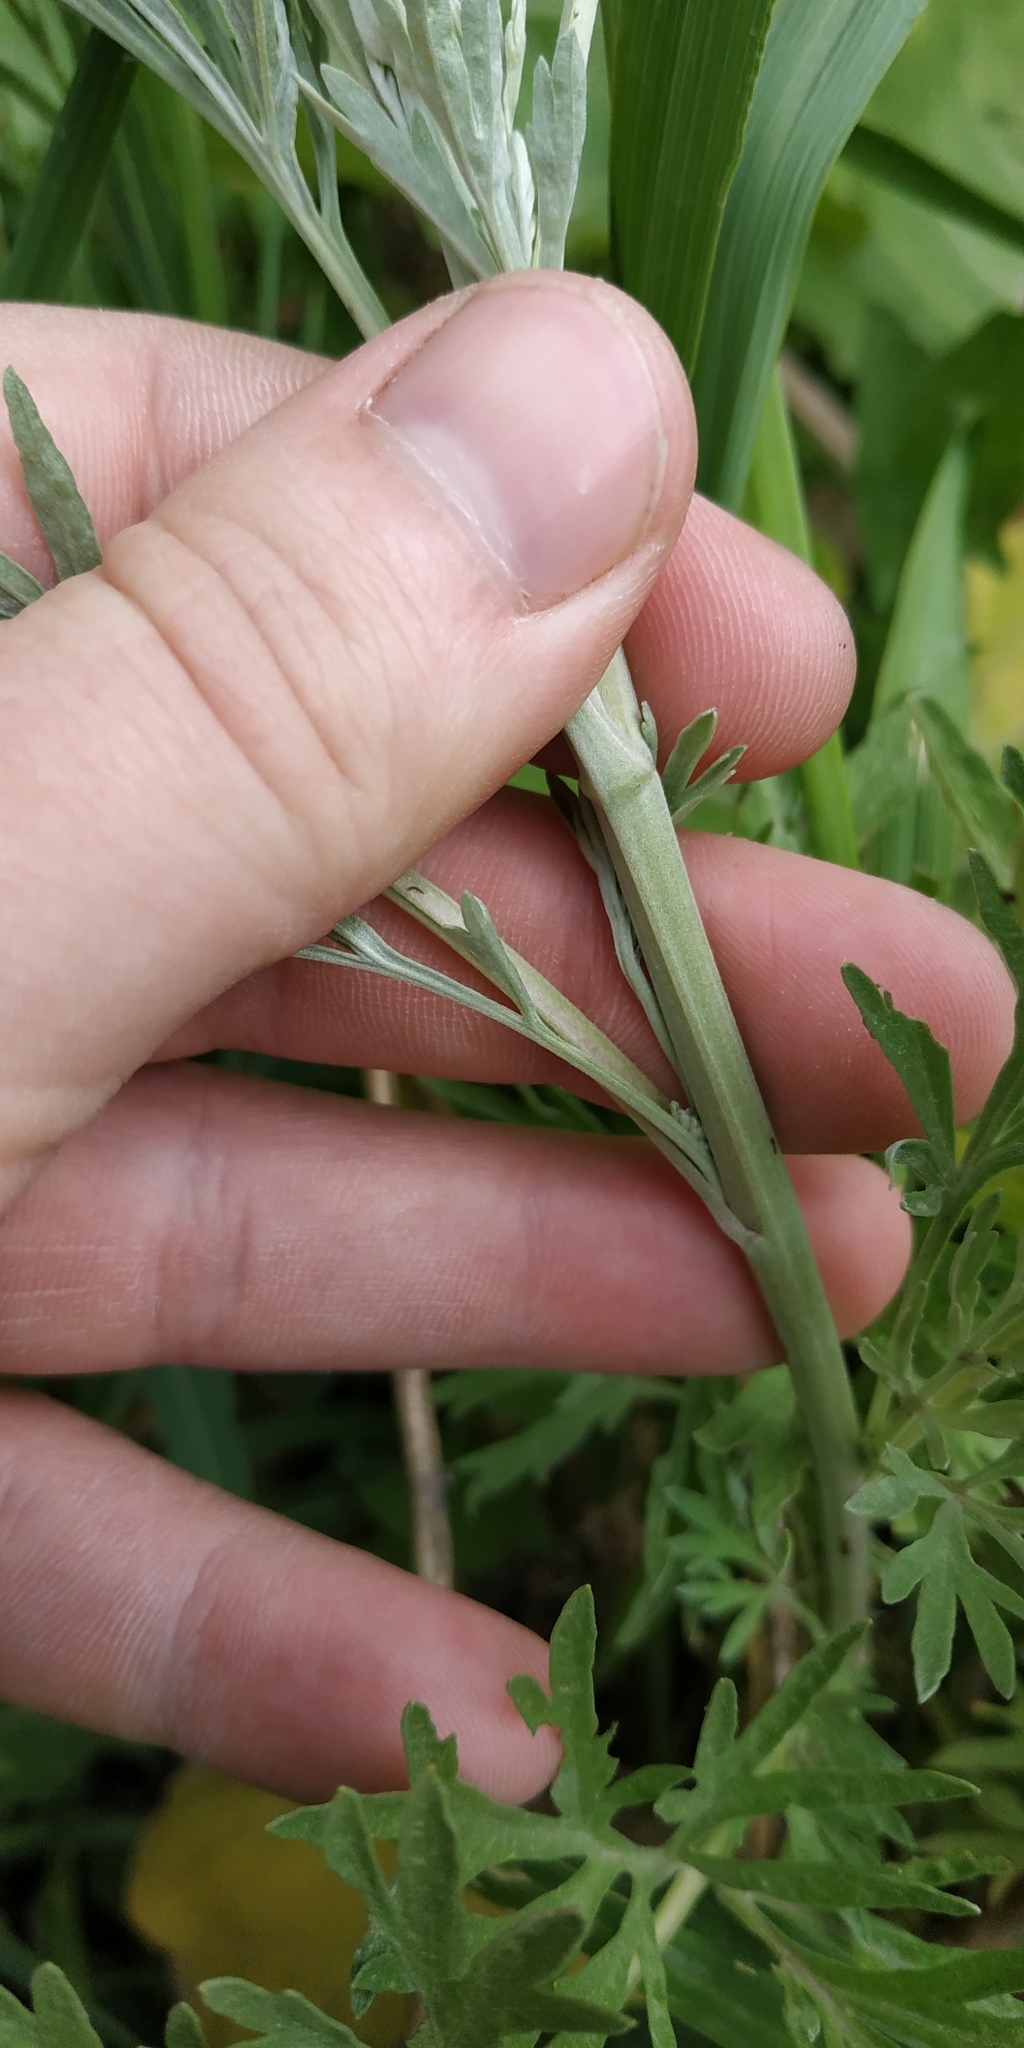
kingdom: Plantae
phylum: Tracheophyta
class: Magnoliopsida
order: Asterales
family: Asteraceae
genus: Artemisia
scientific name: Artemisia sieversiana
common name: Sieversian wormwood
